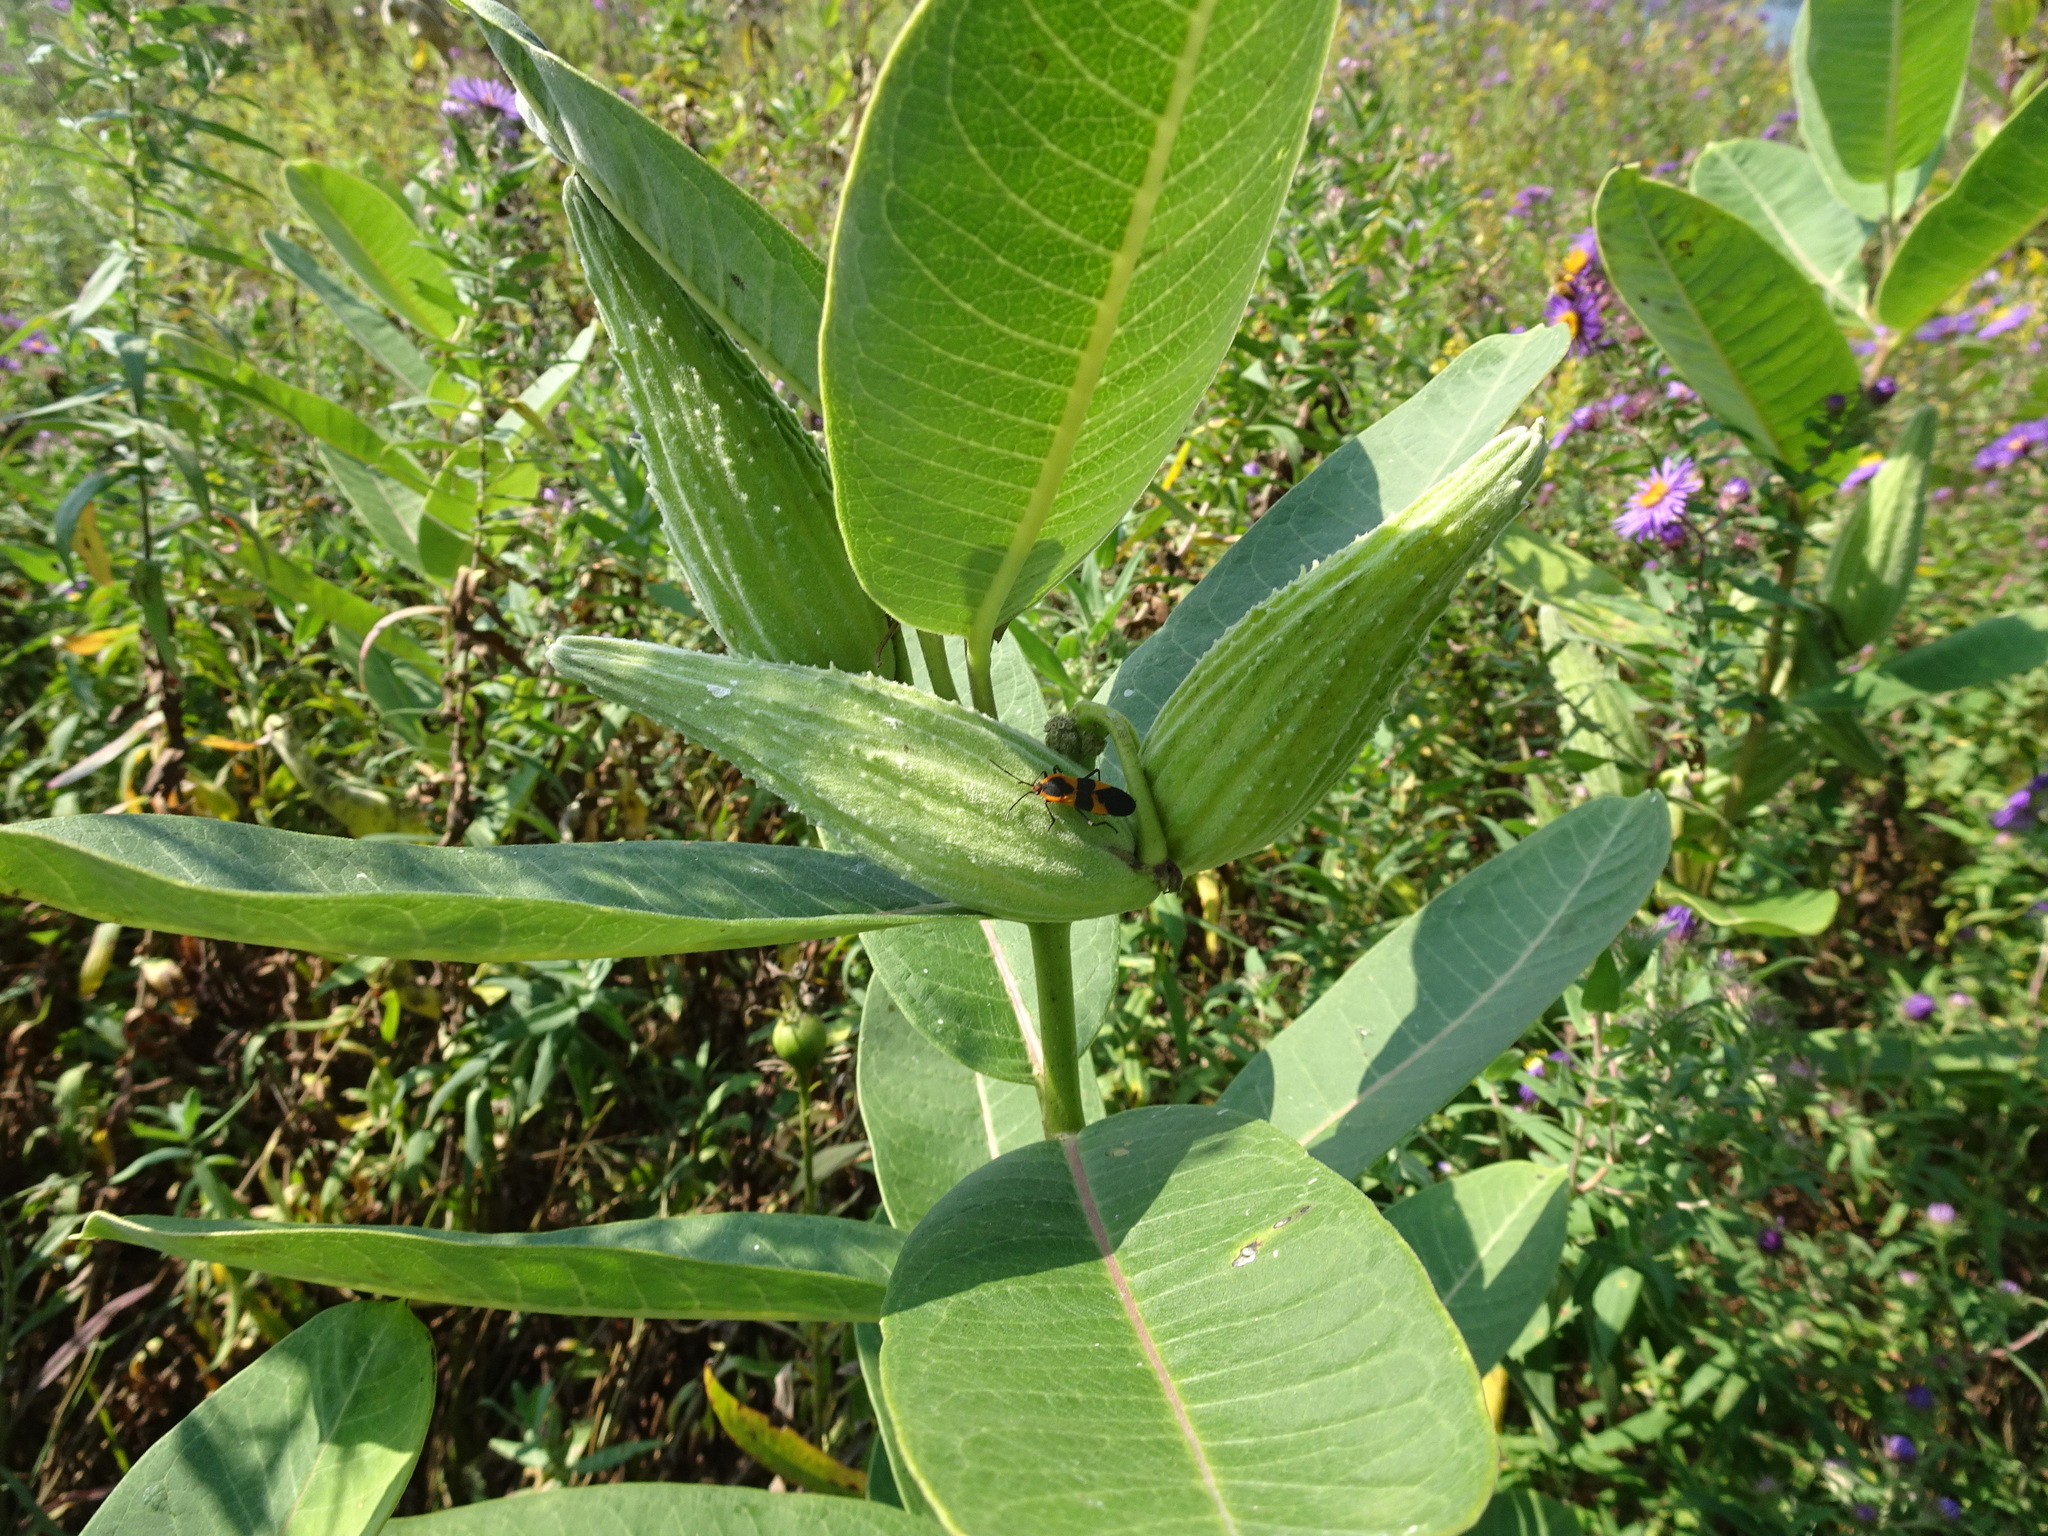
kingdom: Animalia
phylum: Arthropoda
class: Insecta
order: Hemiptera
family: Lygaeidae
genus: Oncopeltus
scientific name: Oncopeltus fasciatus
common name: Large milkweed bug
